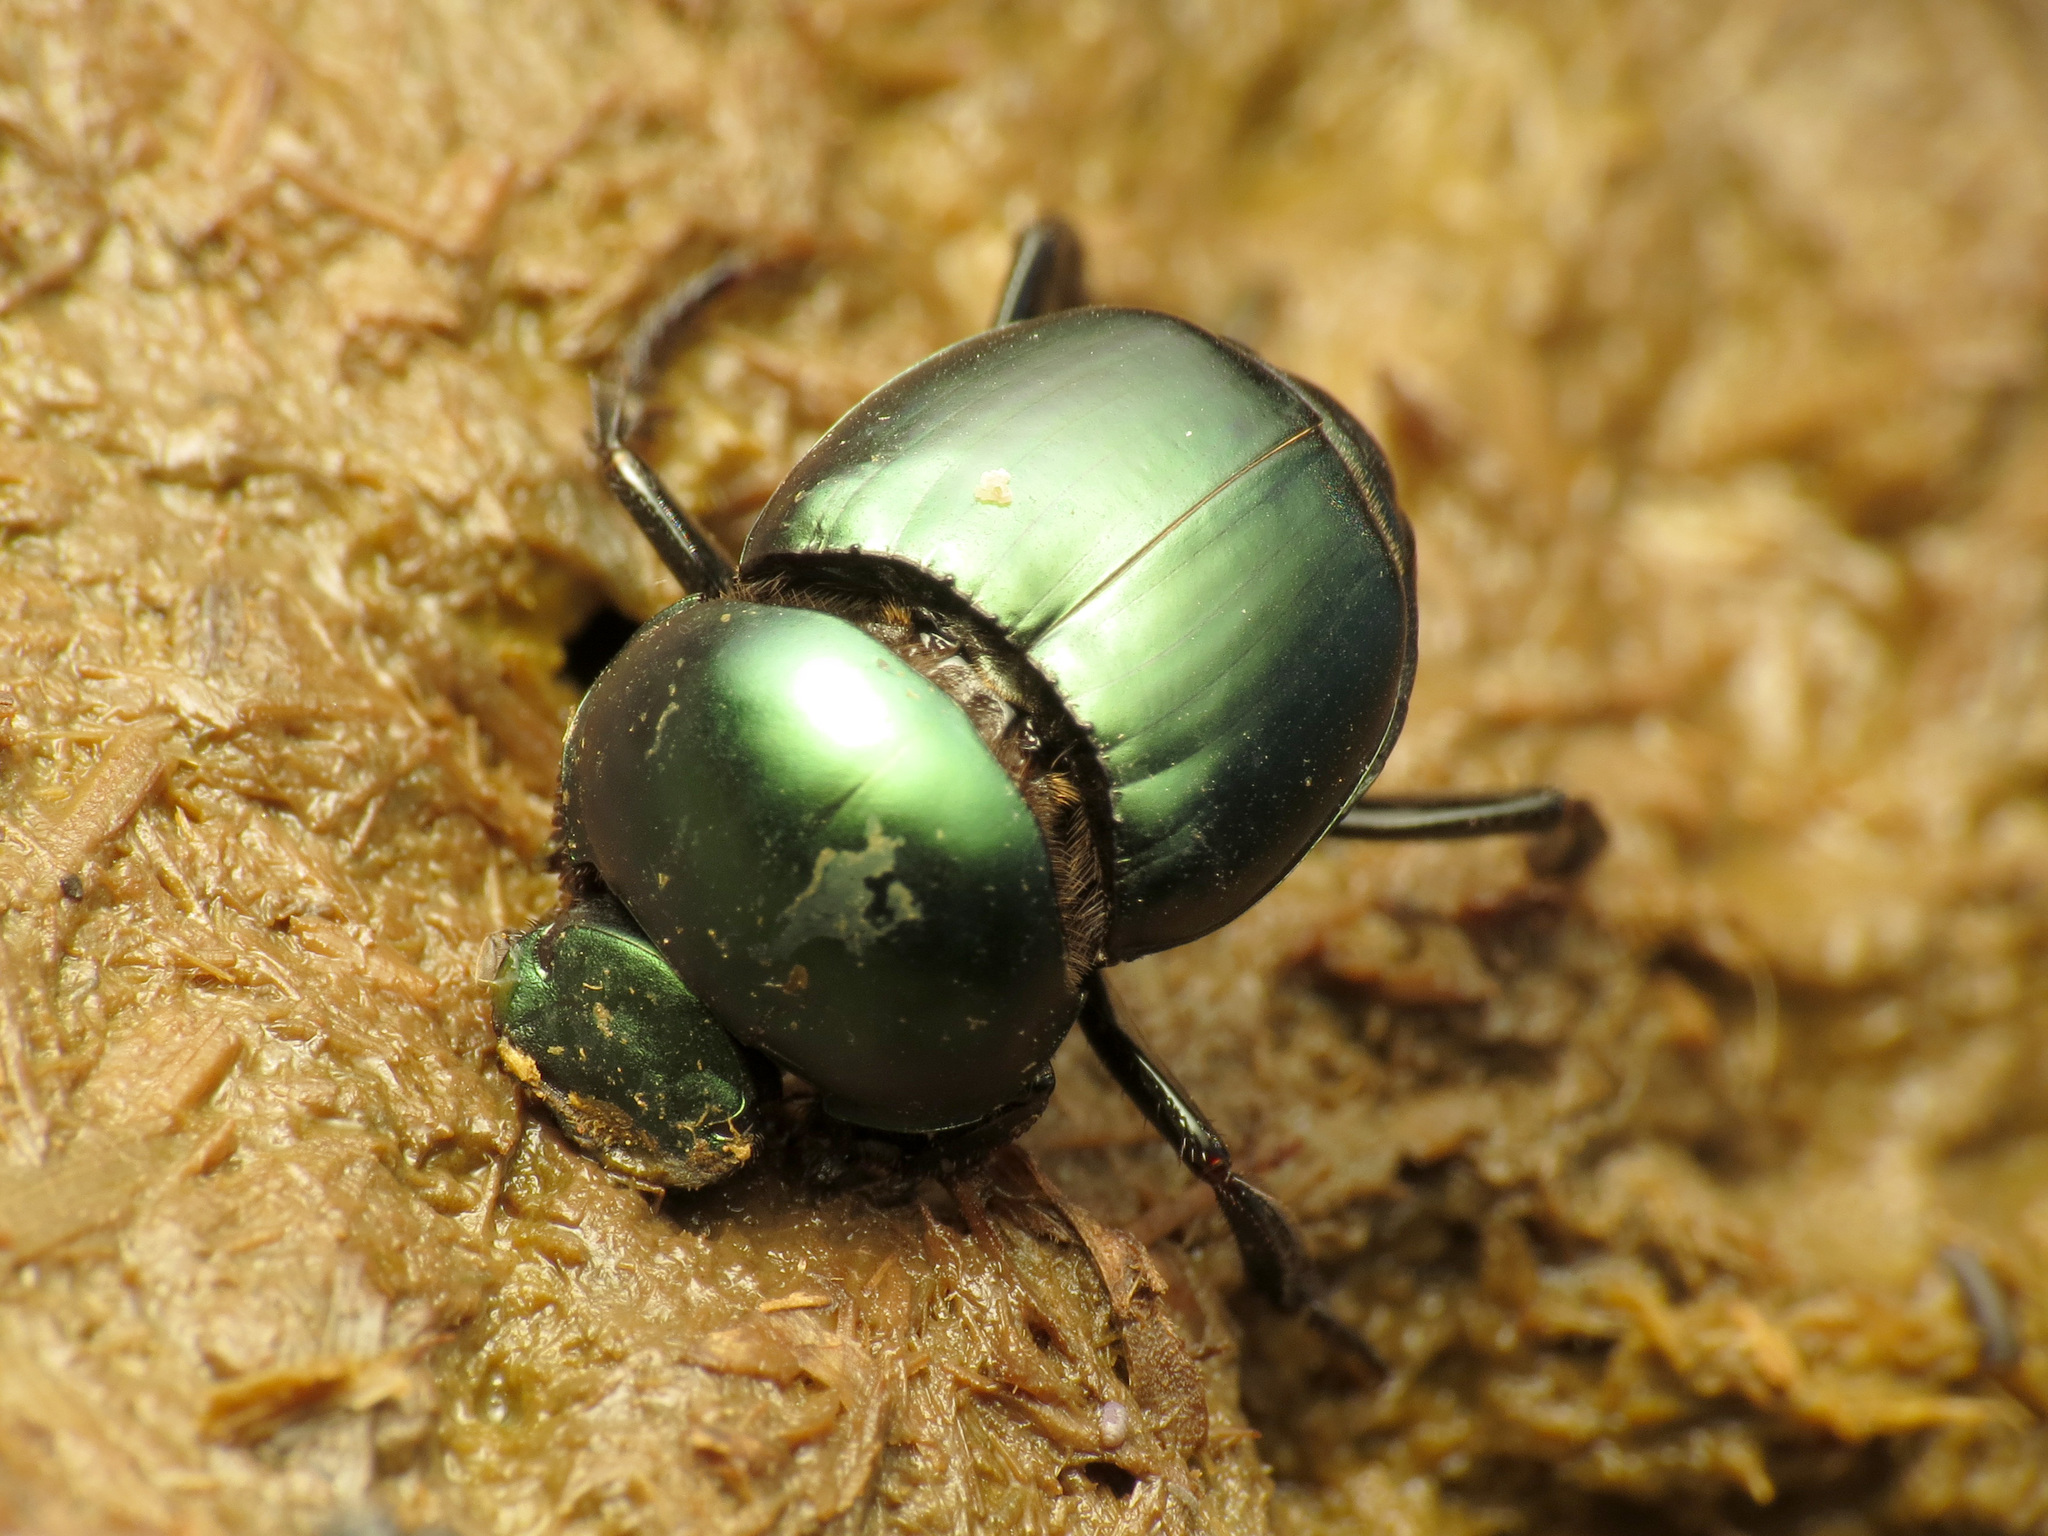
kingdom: Animalia
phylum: Arthropoda
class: Insecta
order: Coleoptera
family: Scarabaeidae
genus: Canthon
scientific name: Canthon indigaceus
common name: Tumblebug
